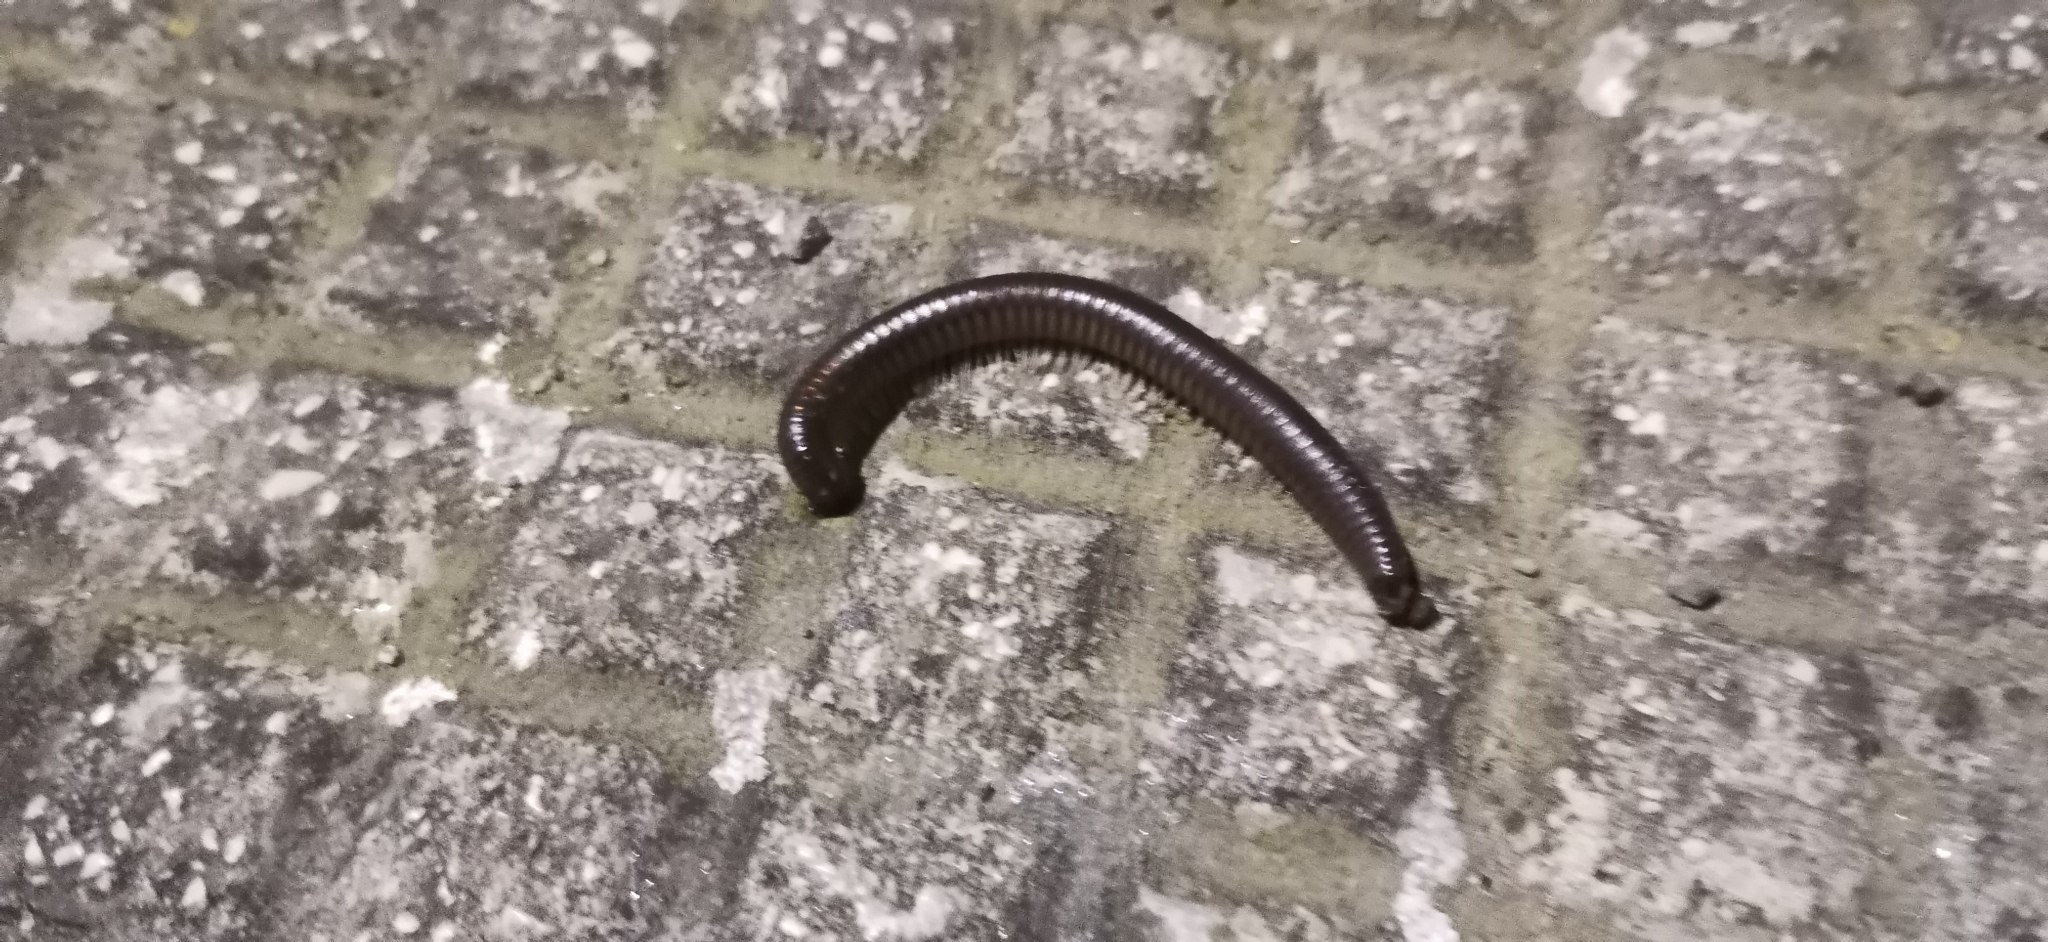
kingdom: Animalia
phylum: Arthropoda
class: Diplopoda
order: Julida
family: Julidae
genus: Pachyiulus
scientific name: Pachyiulus flavipes
